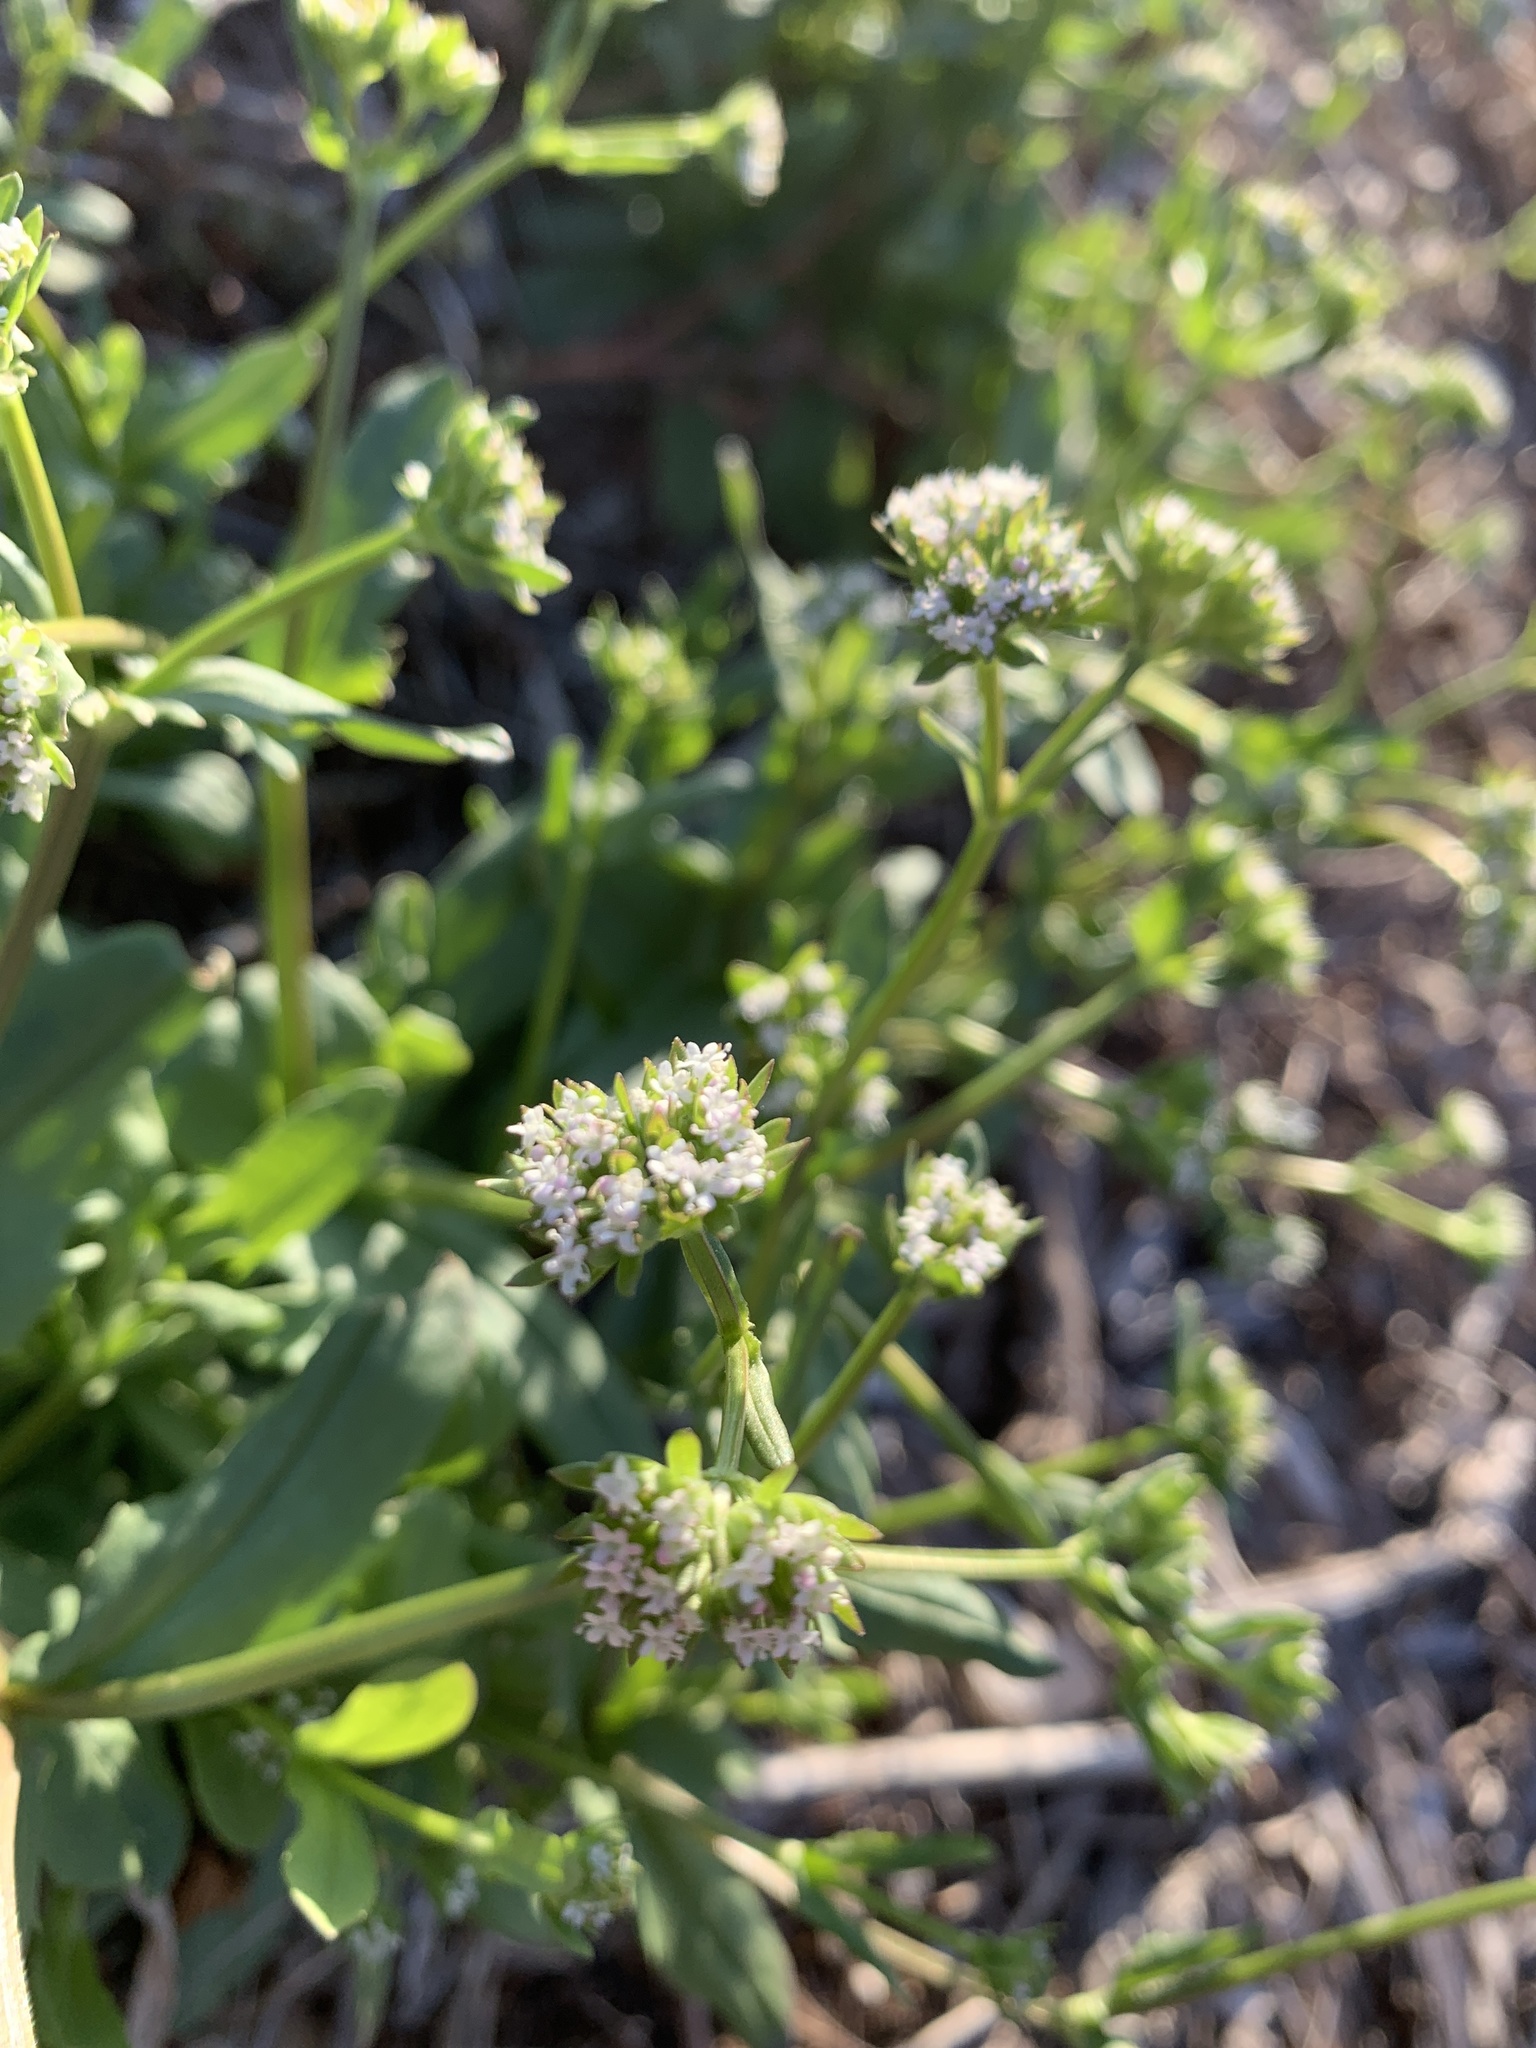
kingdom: Plantae
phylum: Tracheophyta
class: Magnoliopsida
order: Dipsacales
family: Caprifoliaceae
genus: Valerianella
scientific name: Valerianella radiata
